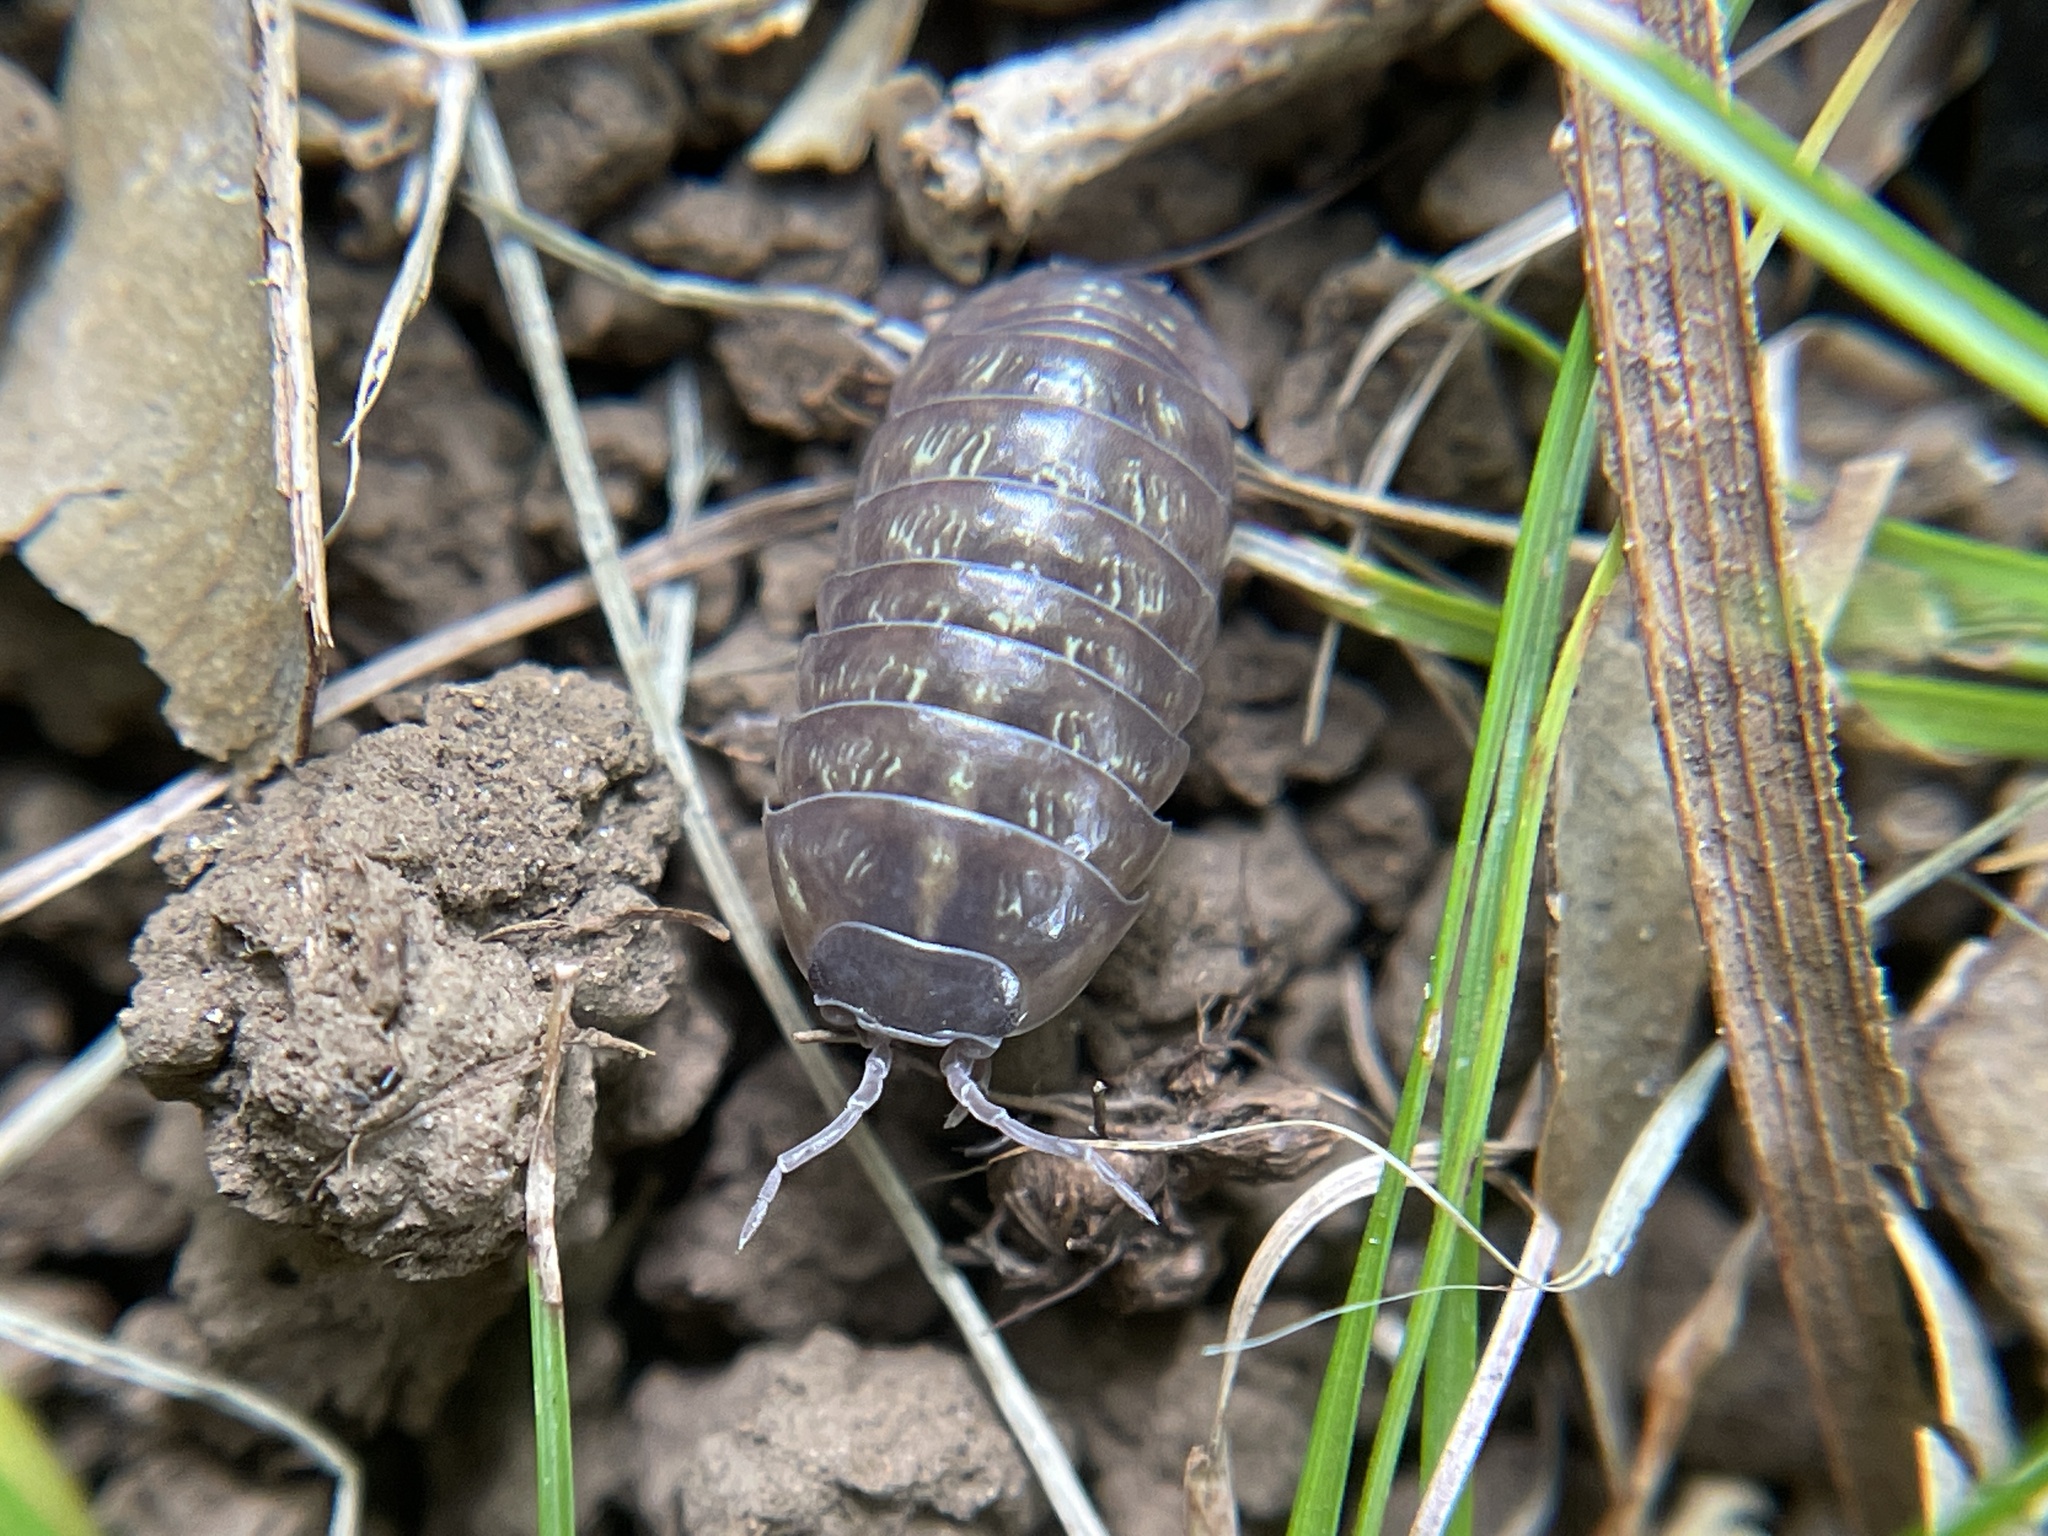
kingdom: Animalia
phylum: Arthropoda
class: Malacostraca
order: Isopoda
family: Armadillidiidae
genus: Armadillidium
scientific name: Armadillidium vulgare
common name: Common pill woodlouse
